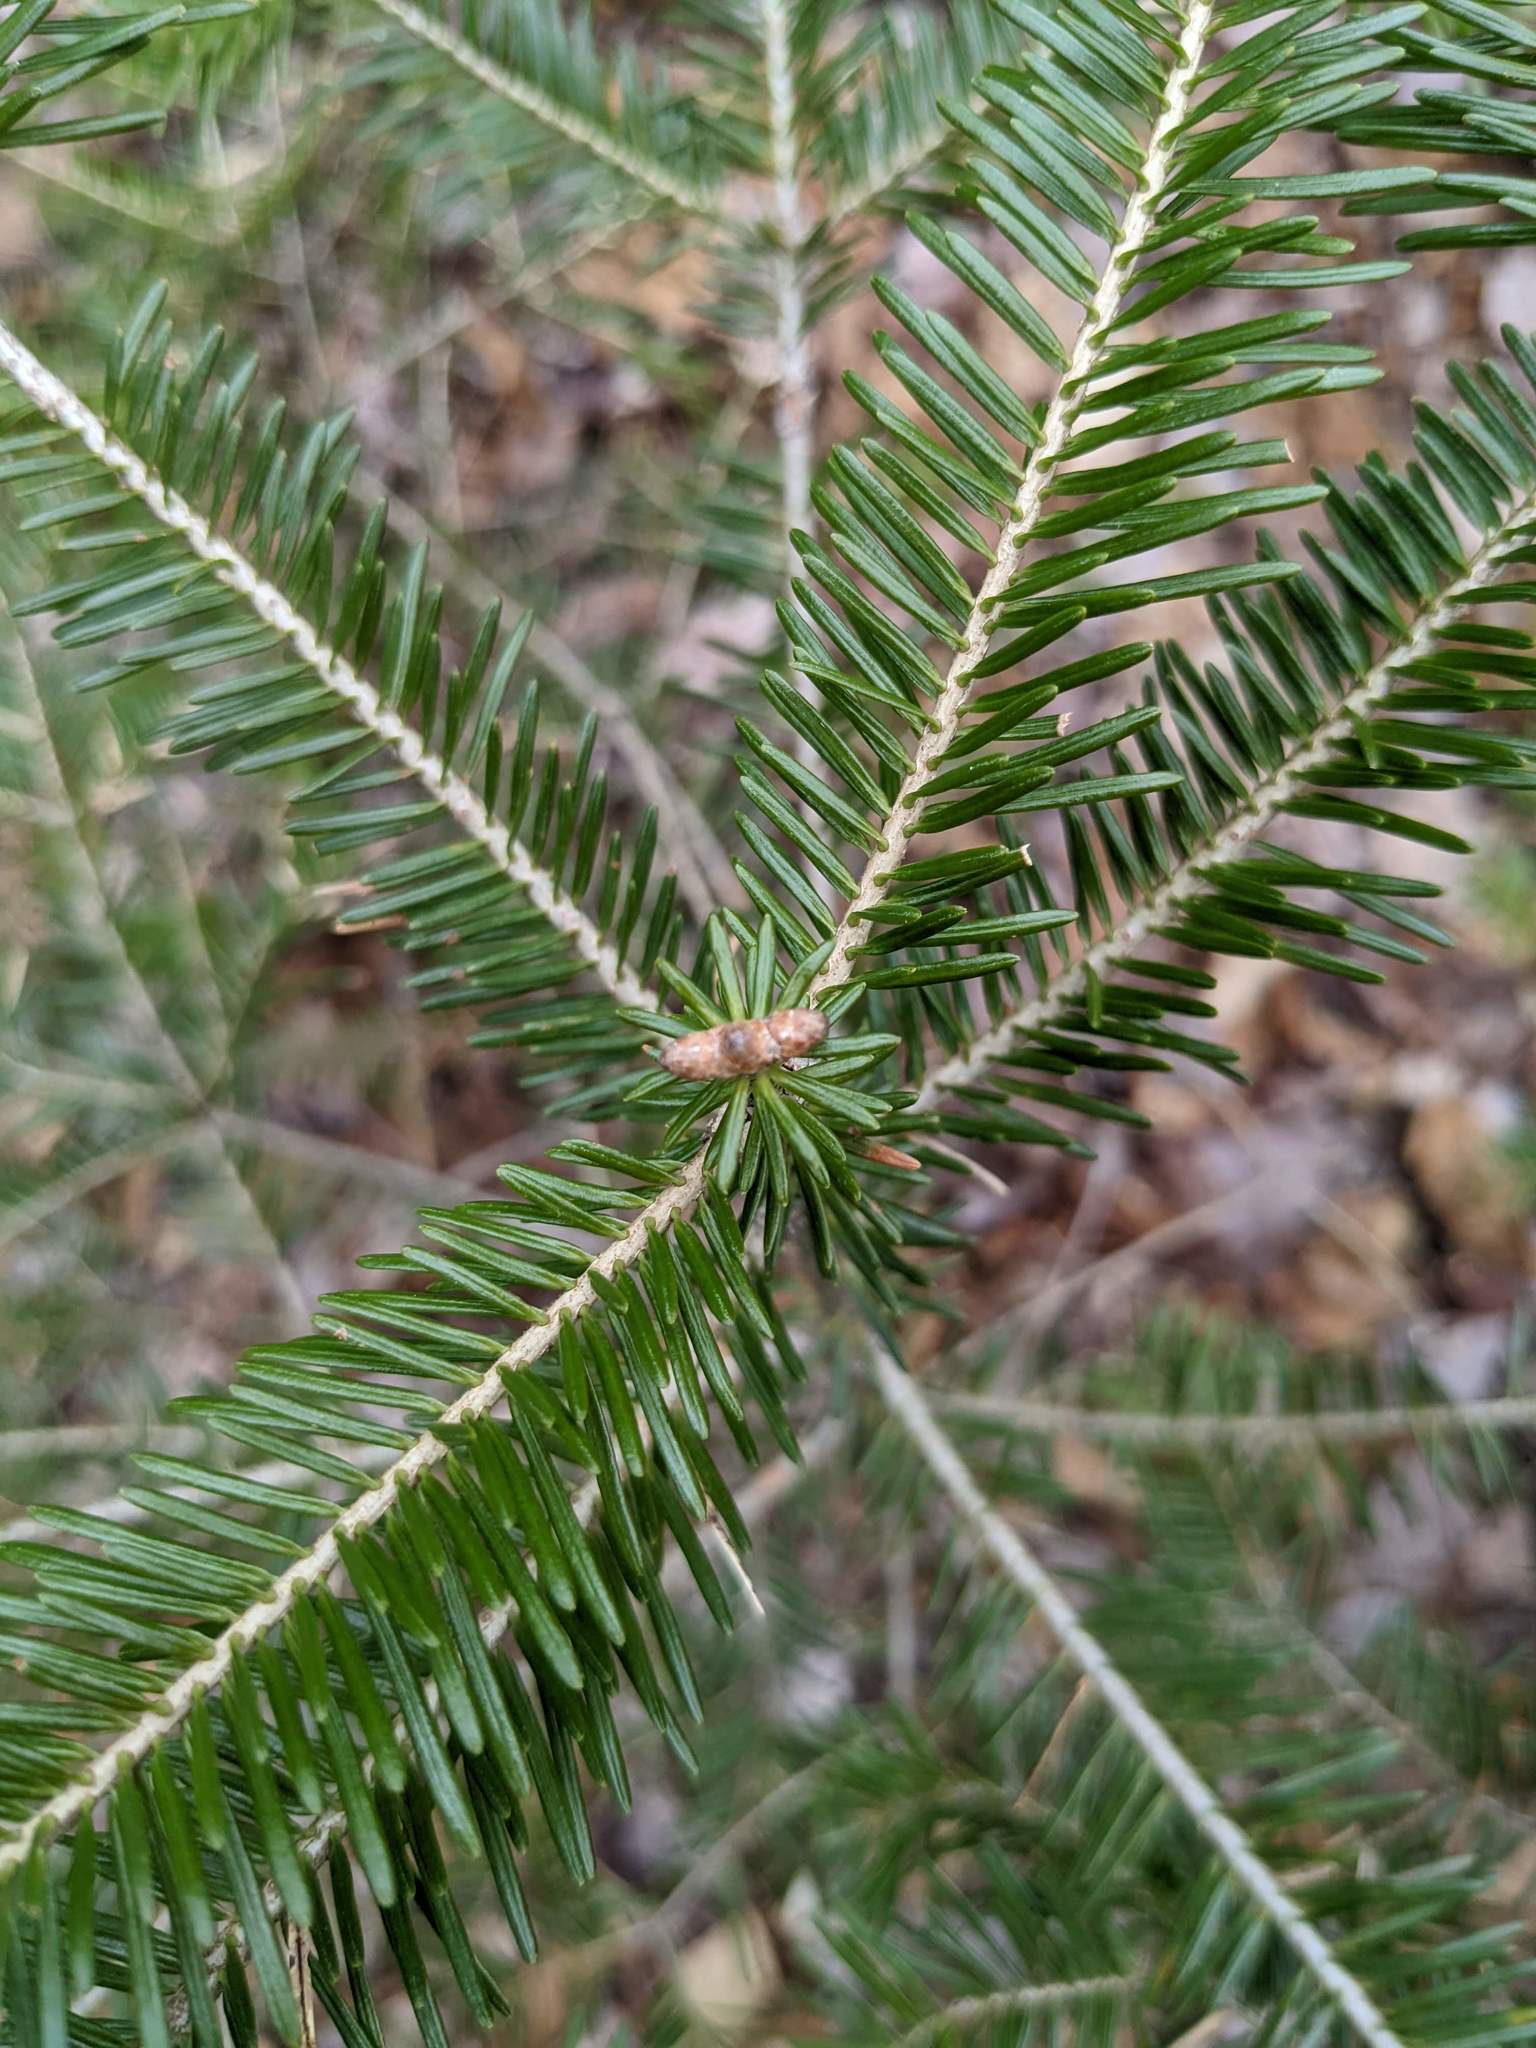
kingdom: Plantae
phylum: Tracheophyta
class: Pinopsida
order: Pinales
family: Pinaceae
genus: Abies
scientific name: Abies balsamea
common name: Balsam fir
